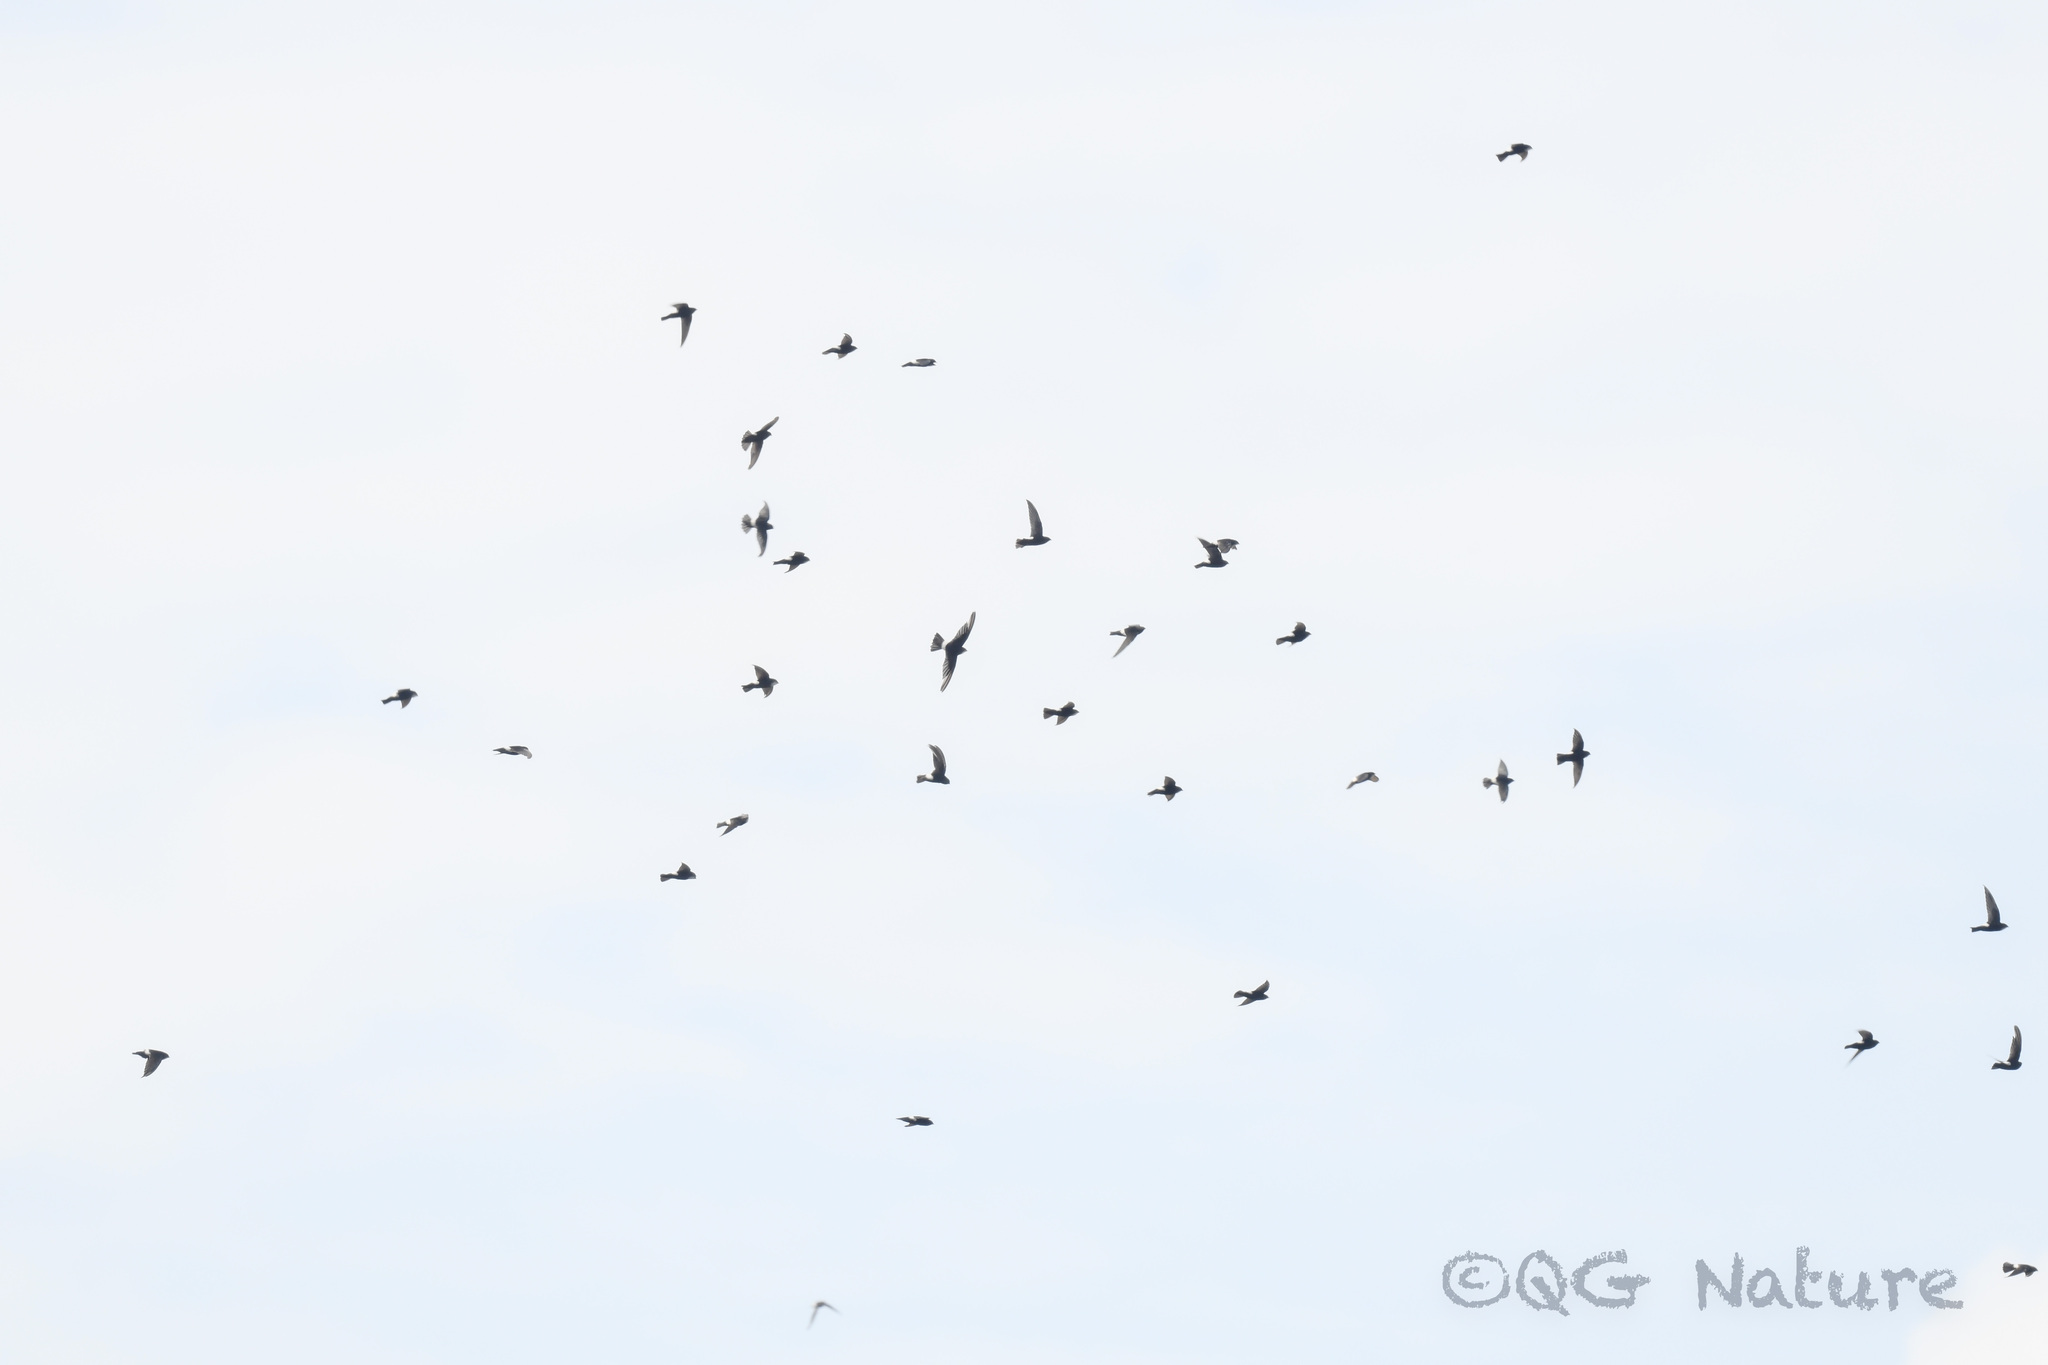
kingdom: Animalia
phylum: Chordata
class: Aves
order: Apodiformes
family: Apodidae
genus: Apus
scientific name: Apus nipalensis
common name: House swift
